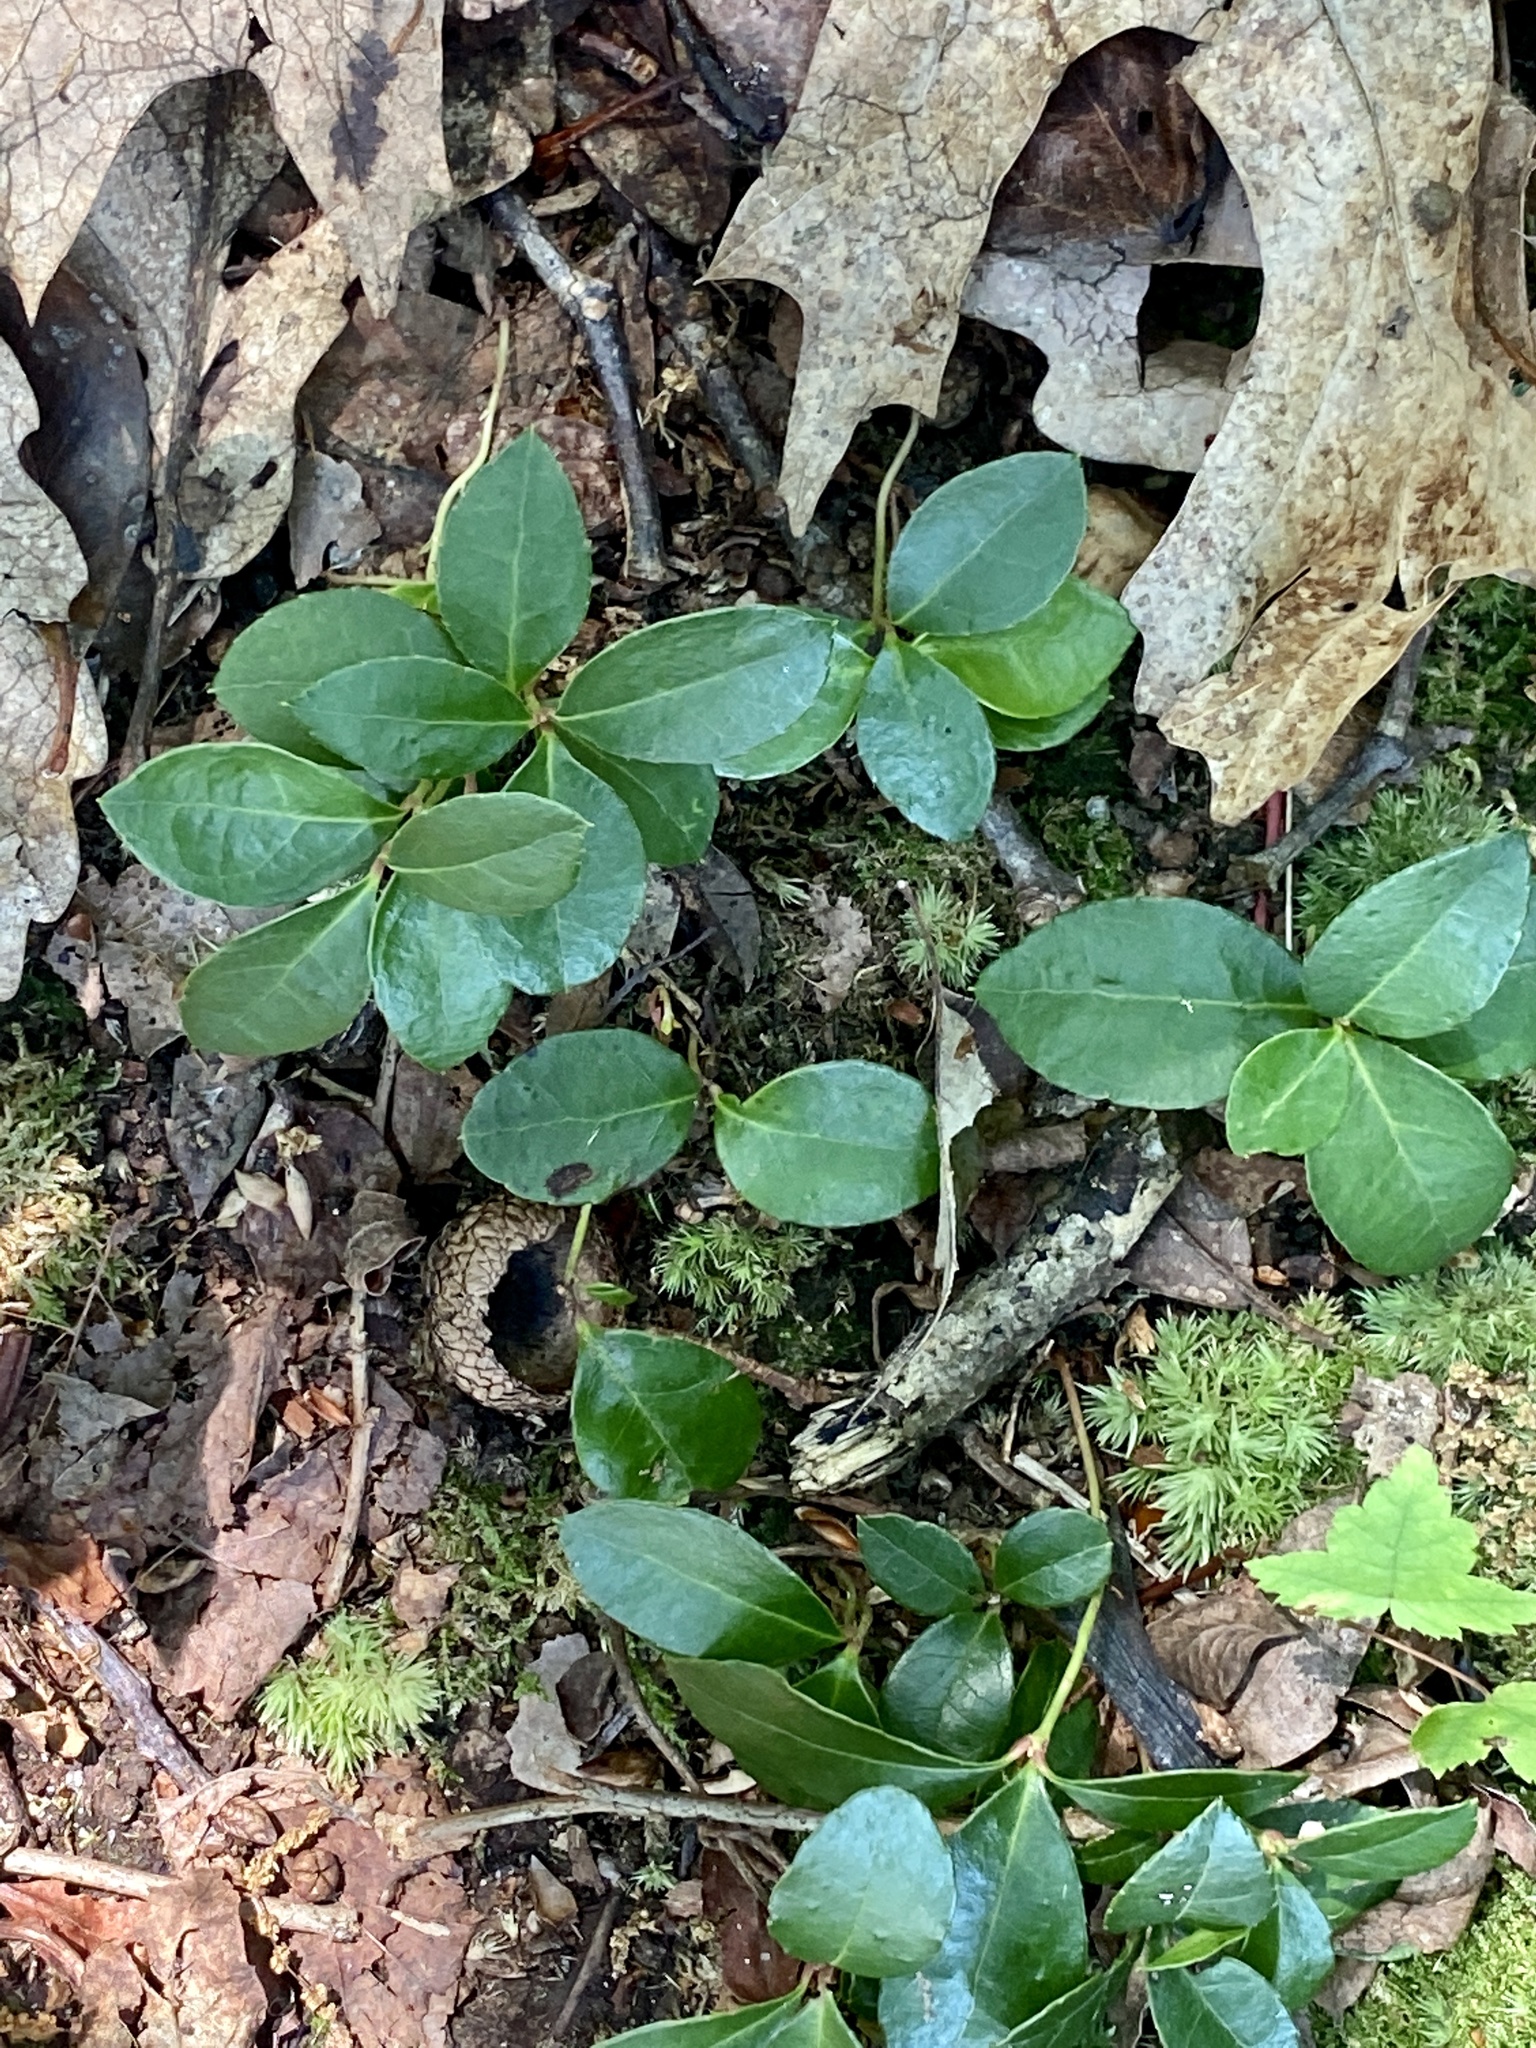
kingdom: Plantae
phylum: Tracheophyta
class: Magnoliopsida
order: Ericales
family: Ericaceae
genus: Gaultheria
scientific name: Gaultheria procumbens
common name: Checkerberry
